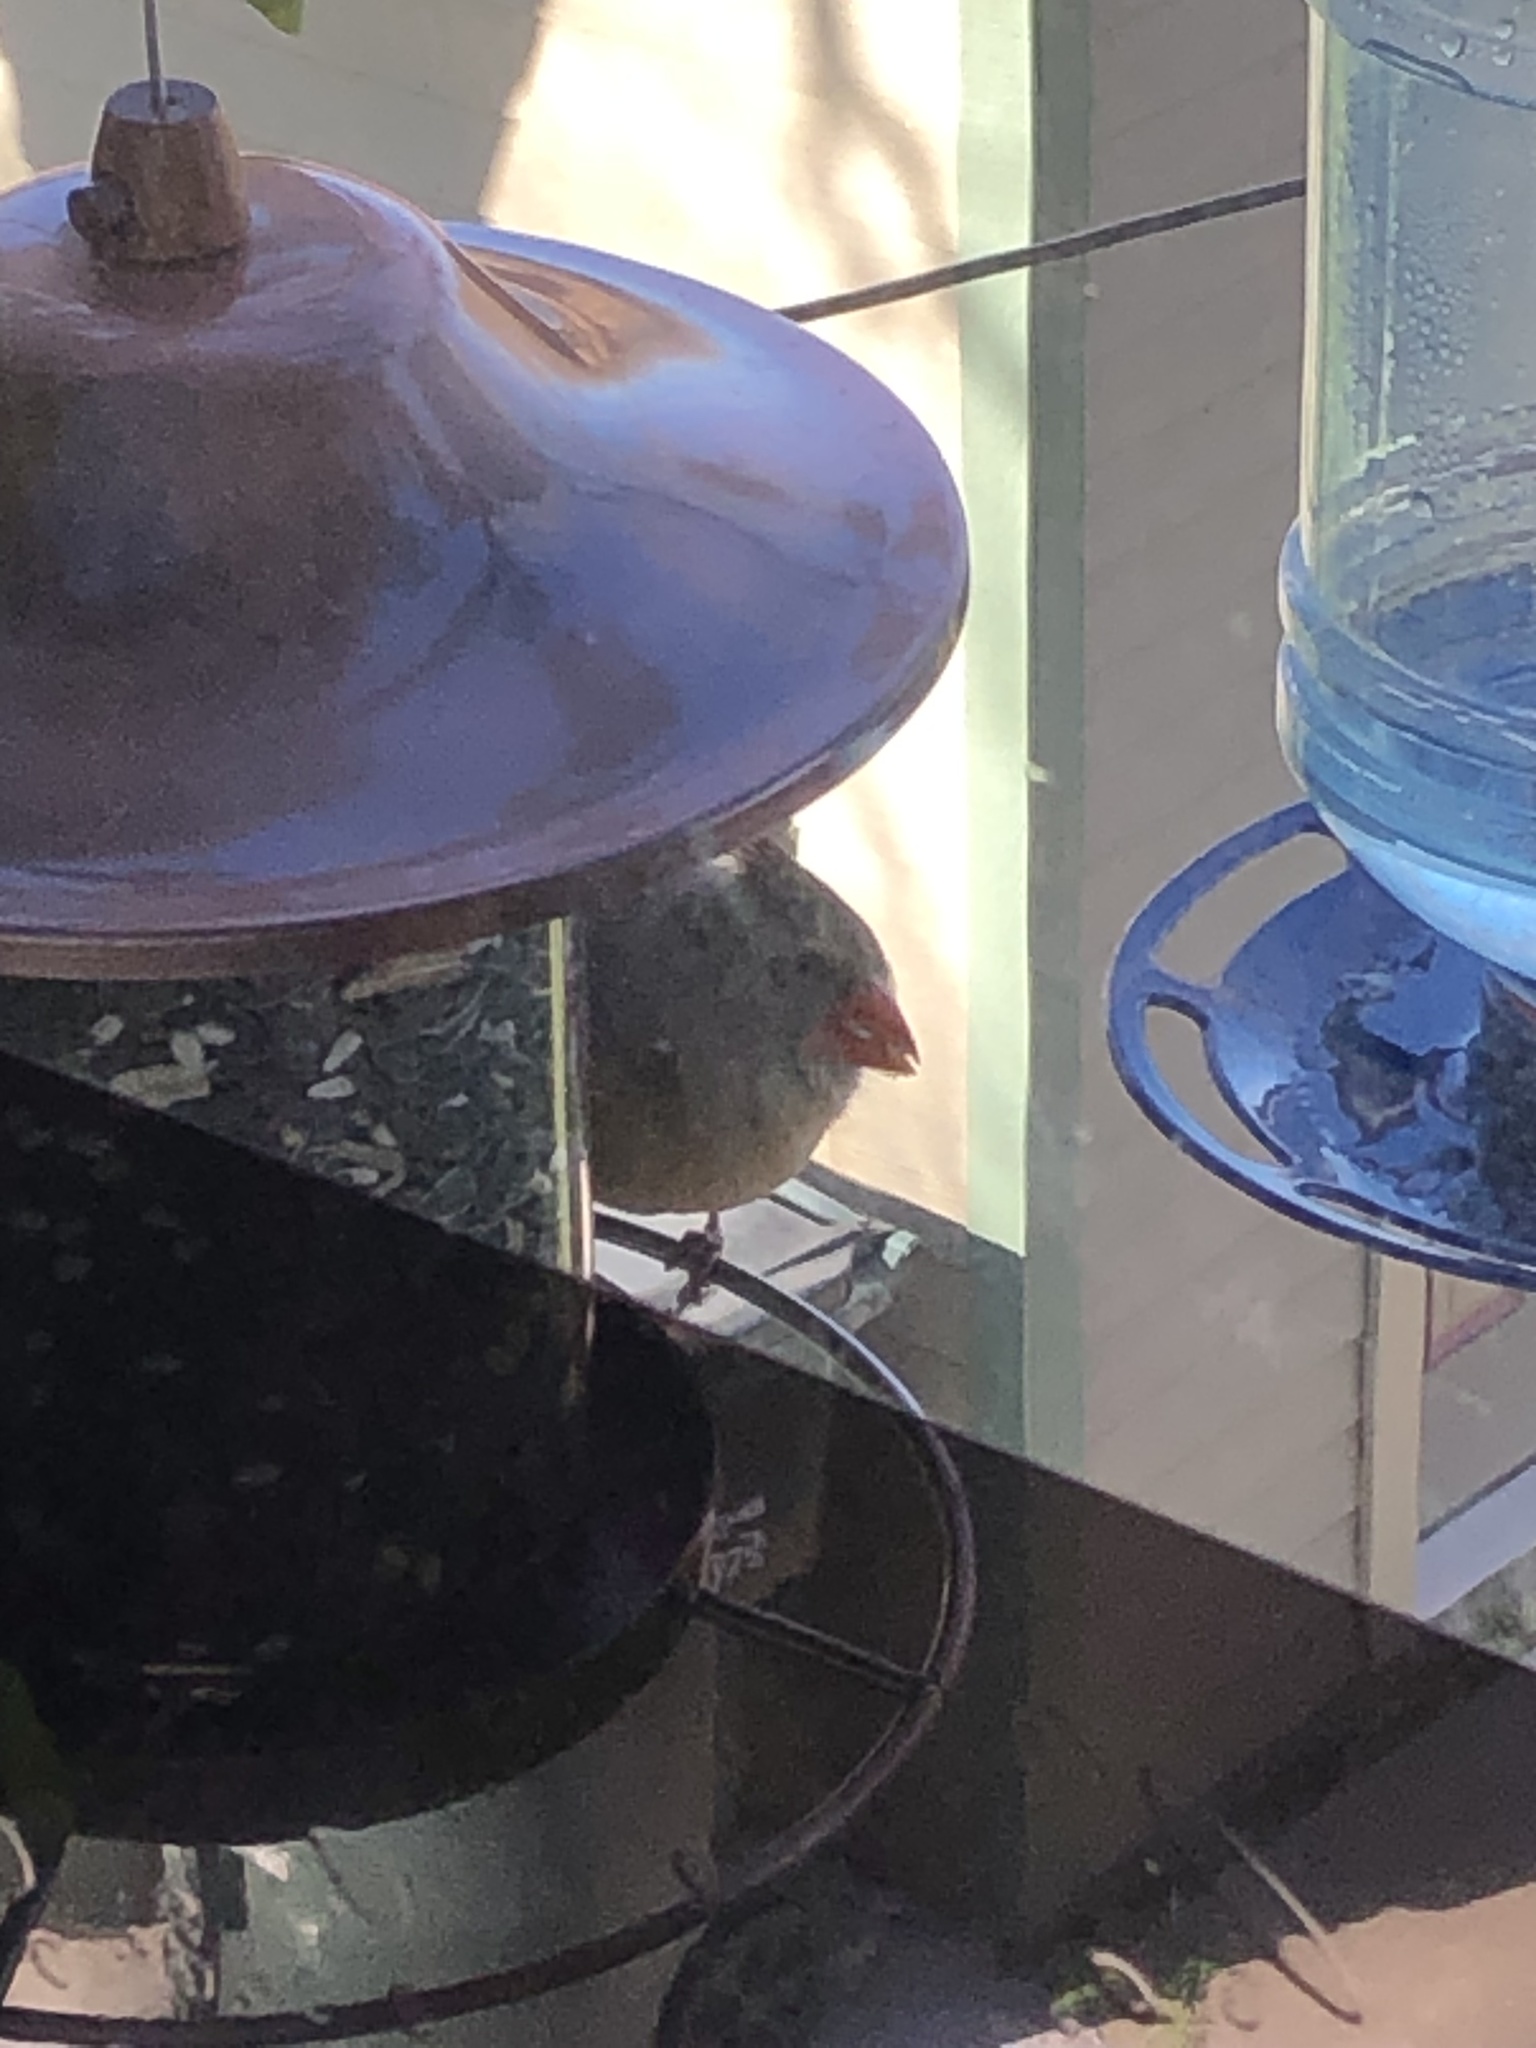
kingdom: Animalia
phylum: Chordata
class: Aves
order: Passeriformes
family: Cardinalidae
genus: Cardinalis
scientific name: Cardinalis cardinalis
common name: Northern cardinal
